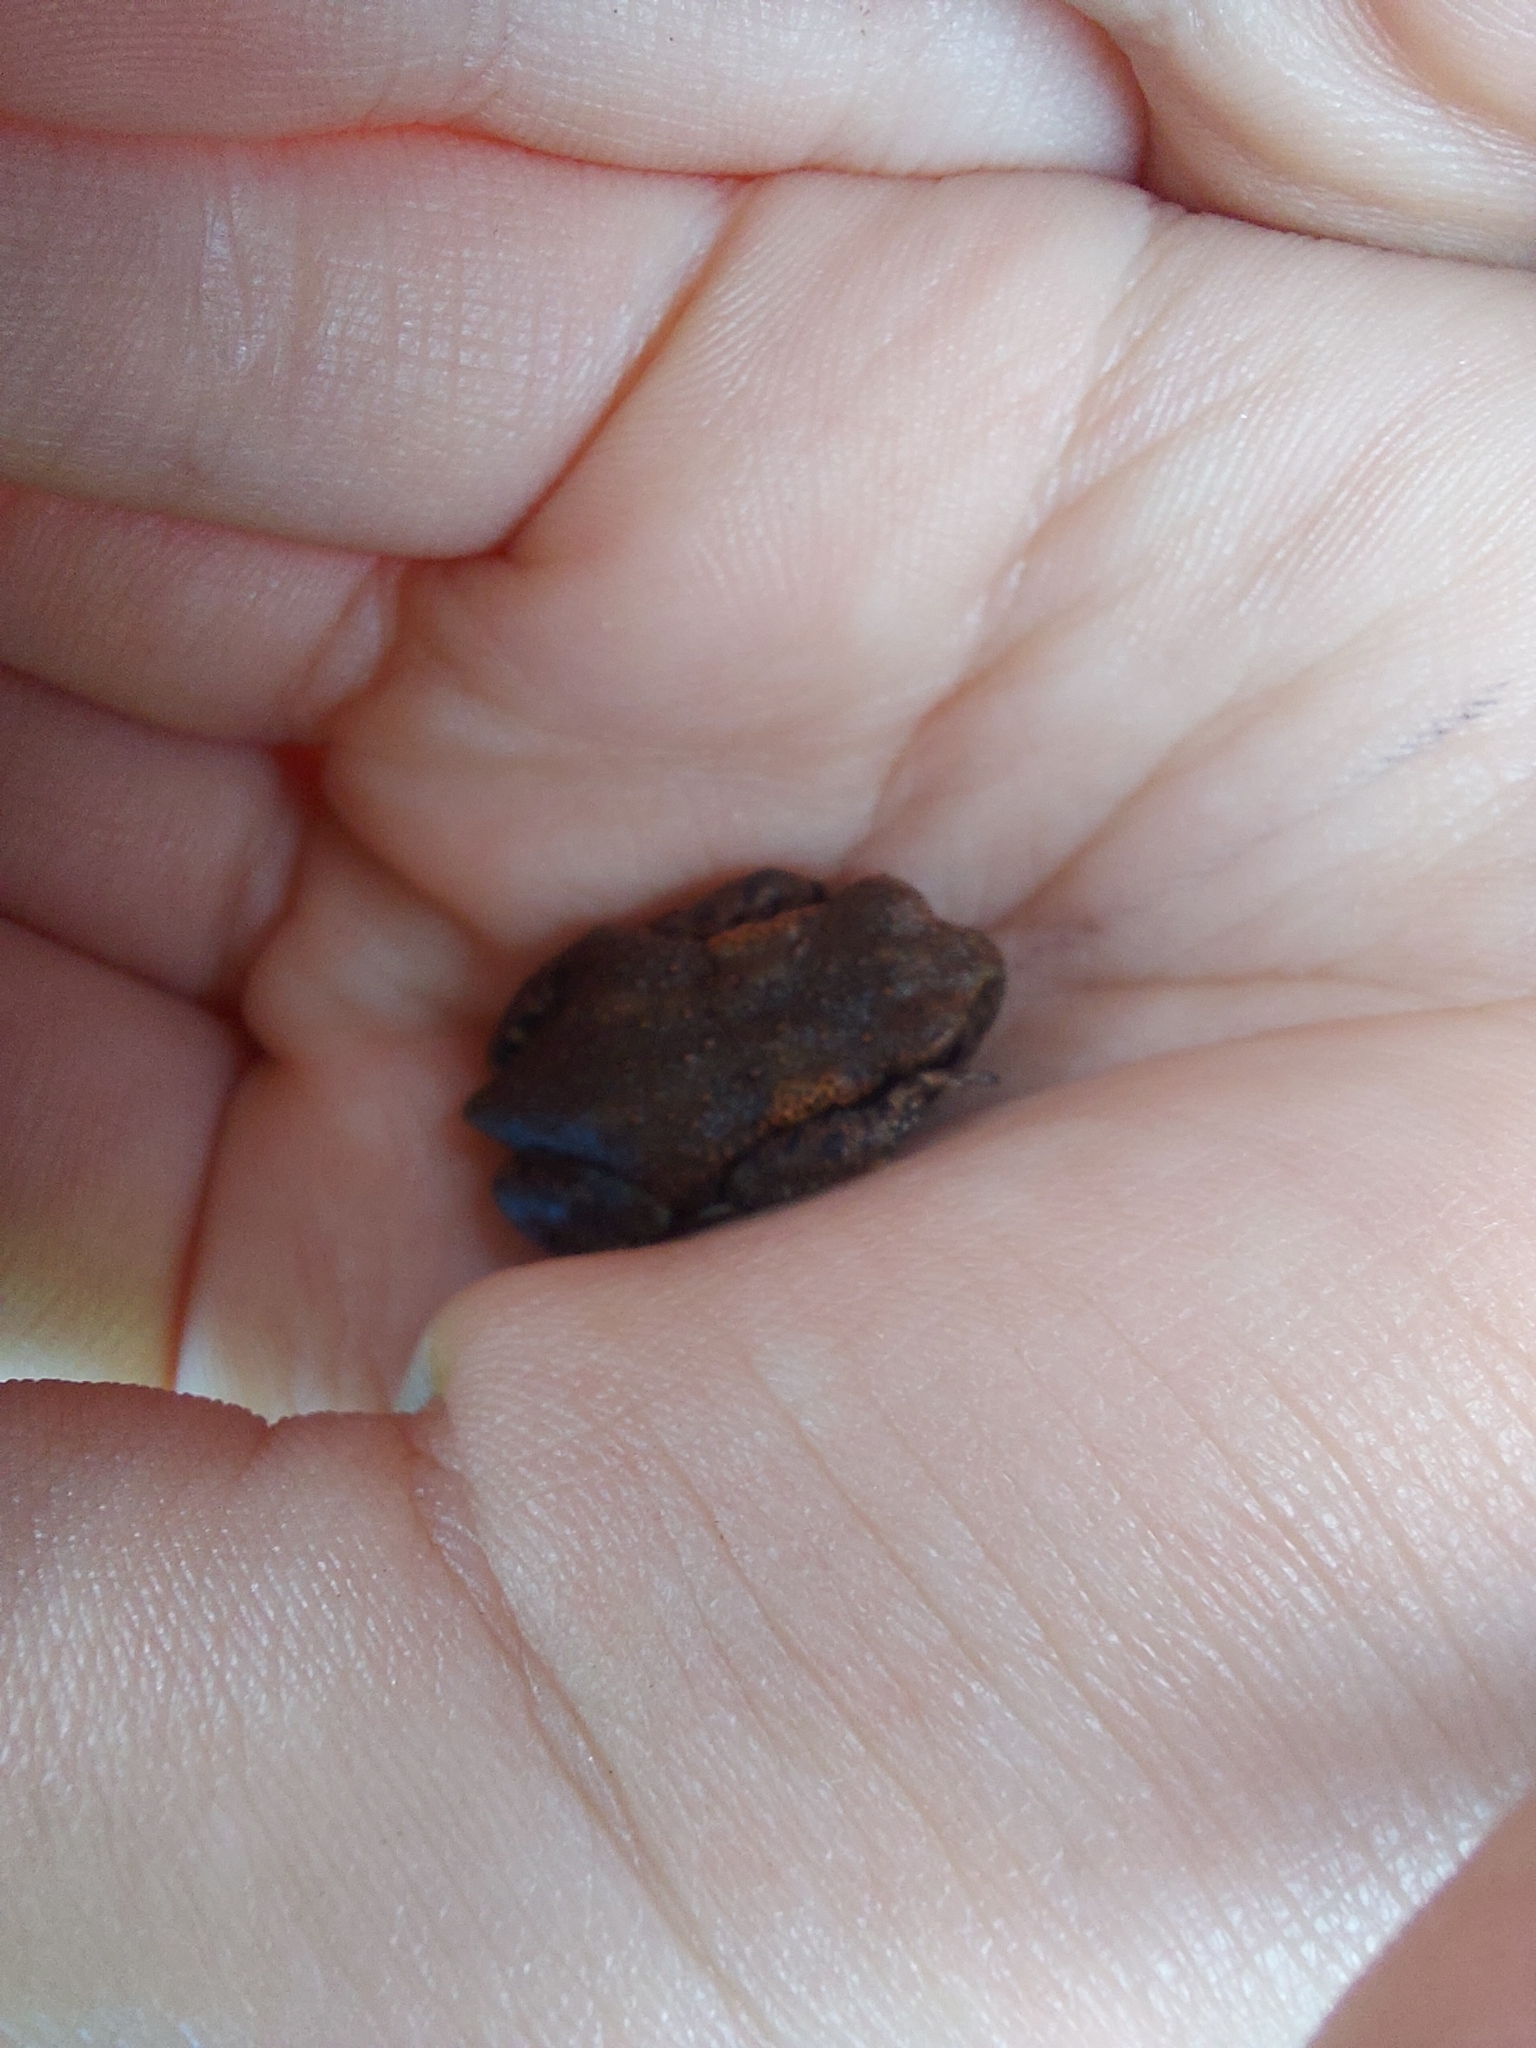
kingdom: Animalia
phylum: Chordata
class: Amphibia
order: Anura
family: Bufonidae
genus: Bufo
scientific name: Bufo bufo
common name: Common toad
